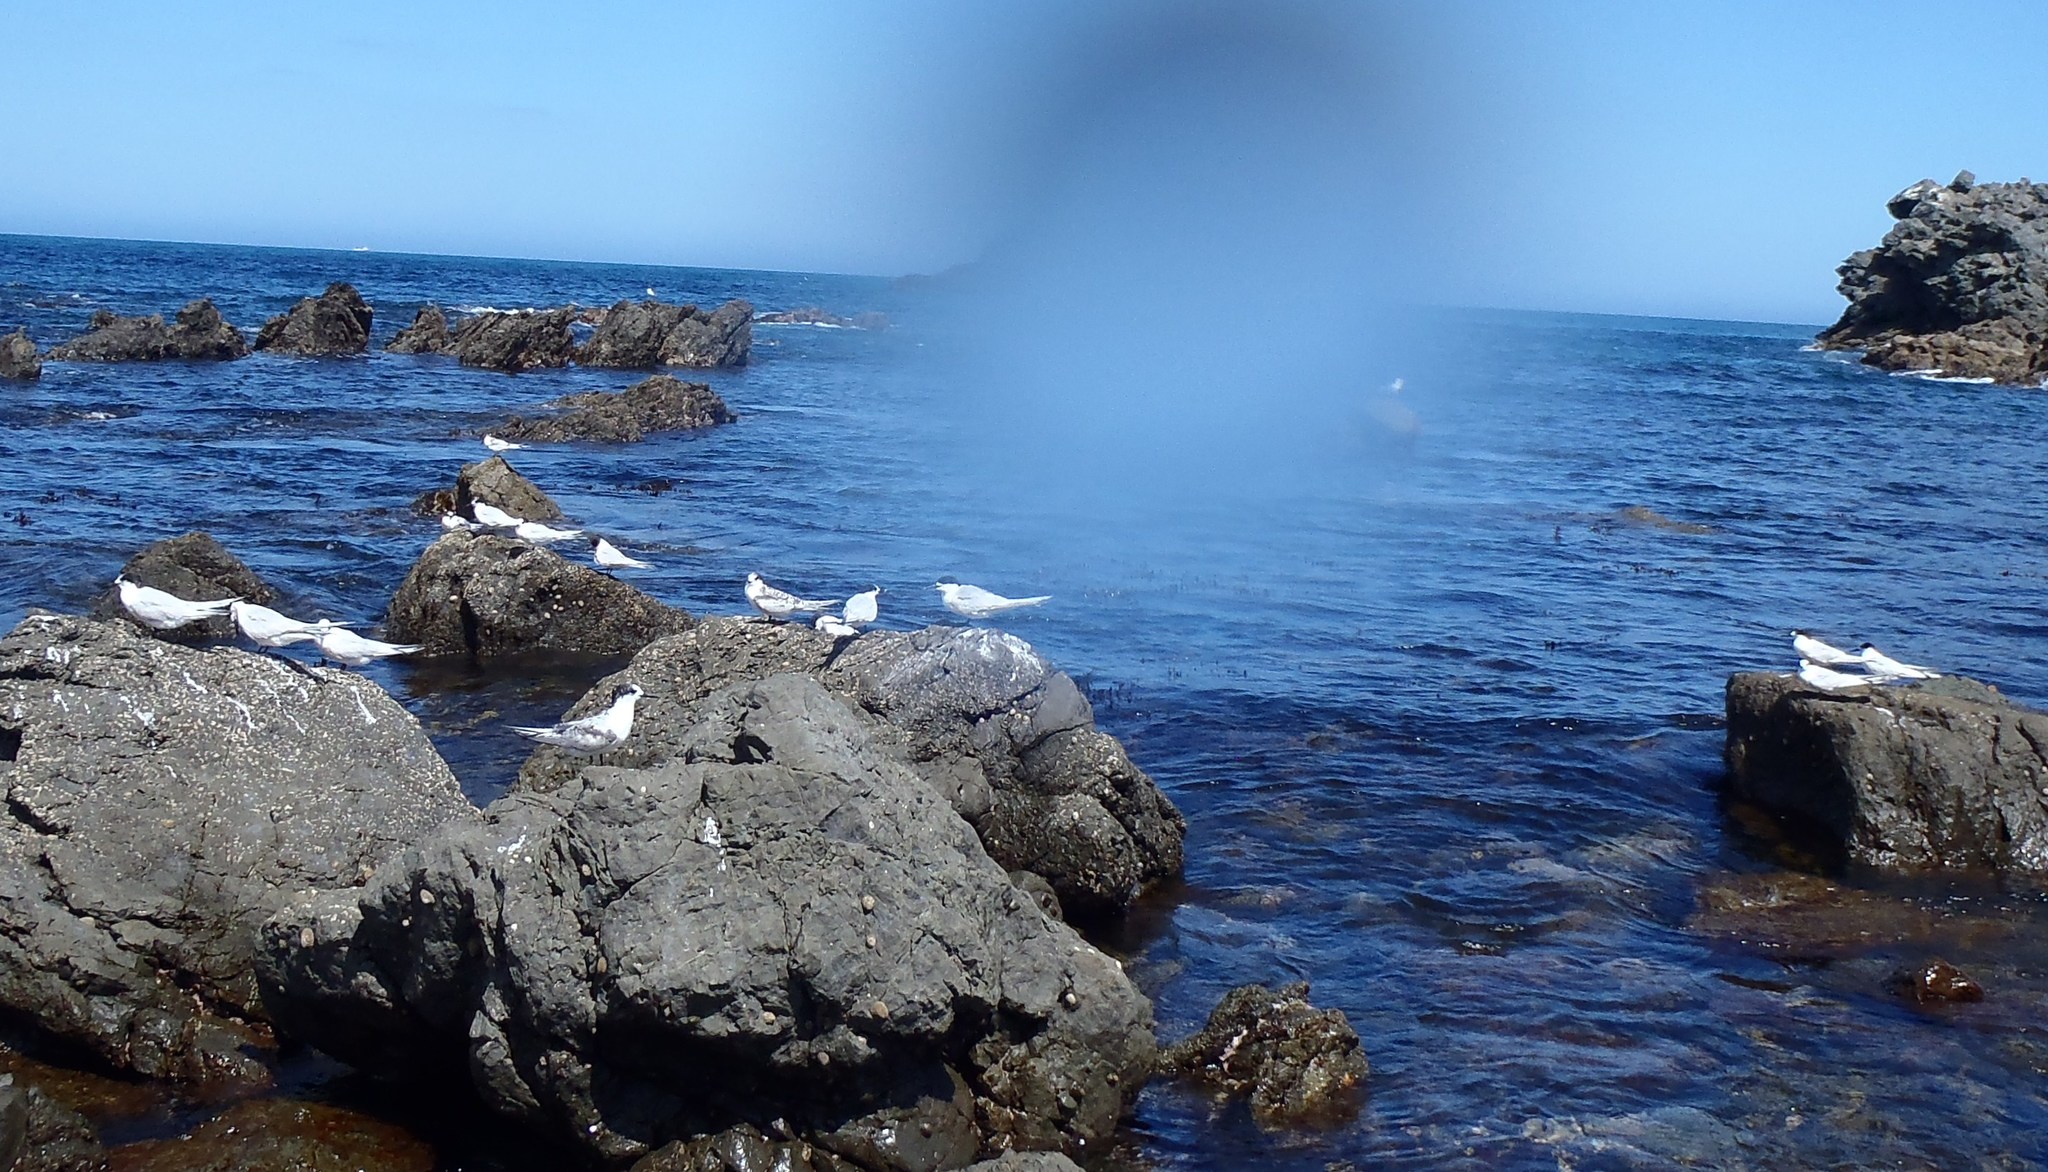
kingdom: Animalia
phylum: Chordata
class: Aves
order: Charadriiformes
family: Laridae
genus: Sterna
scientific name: Sterna striata
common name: White-fronted tern
